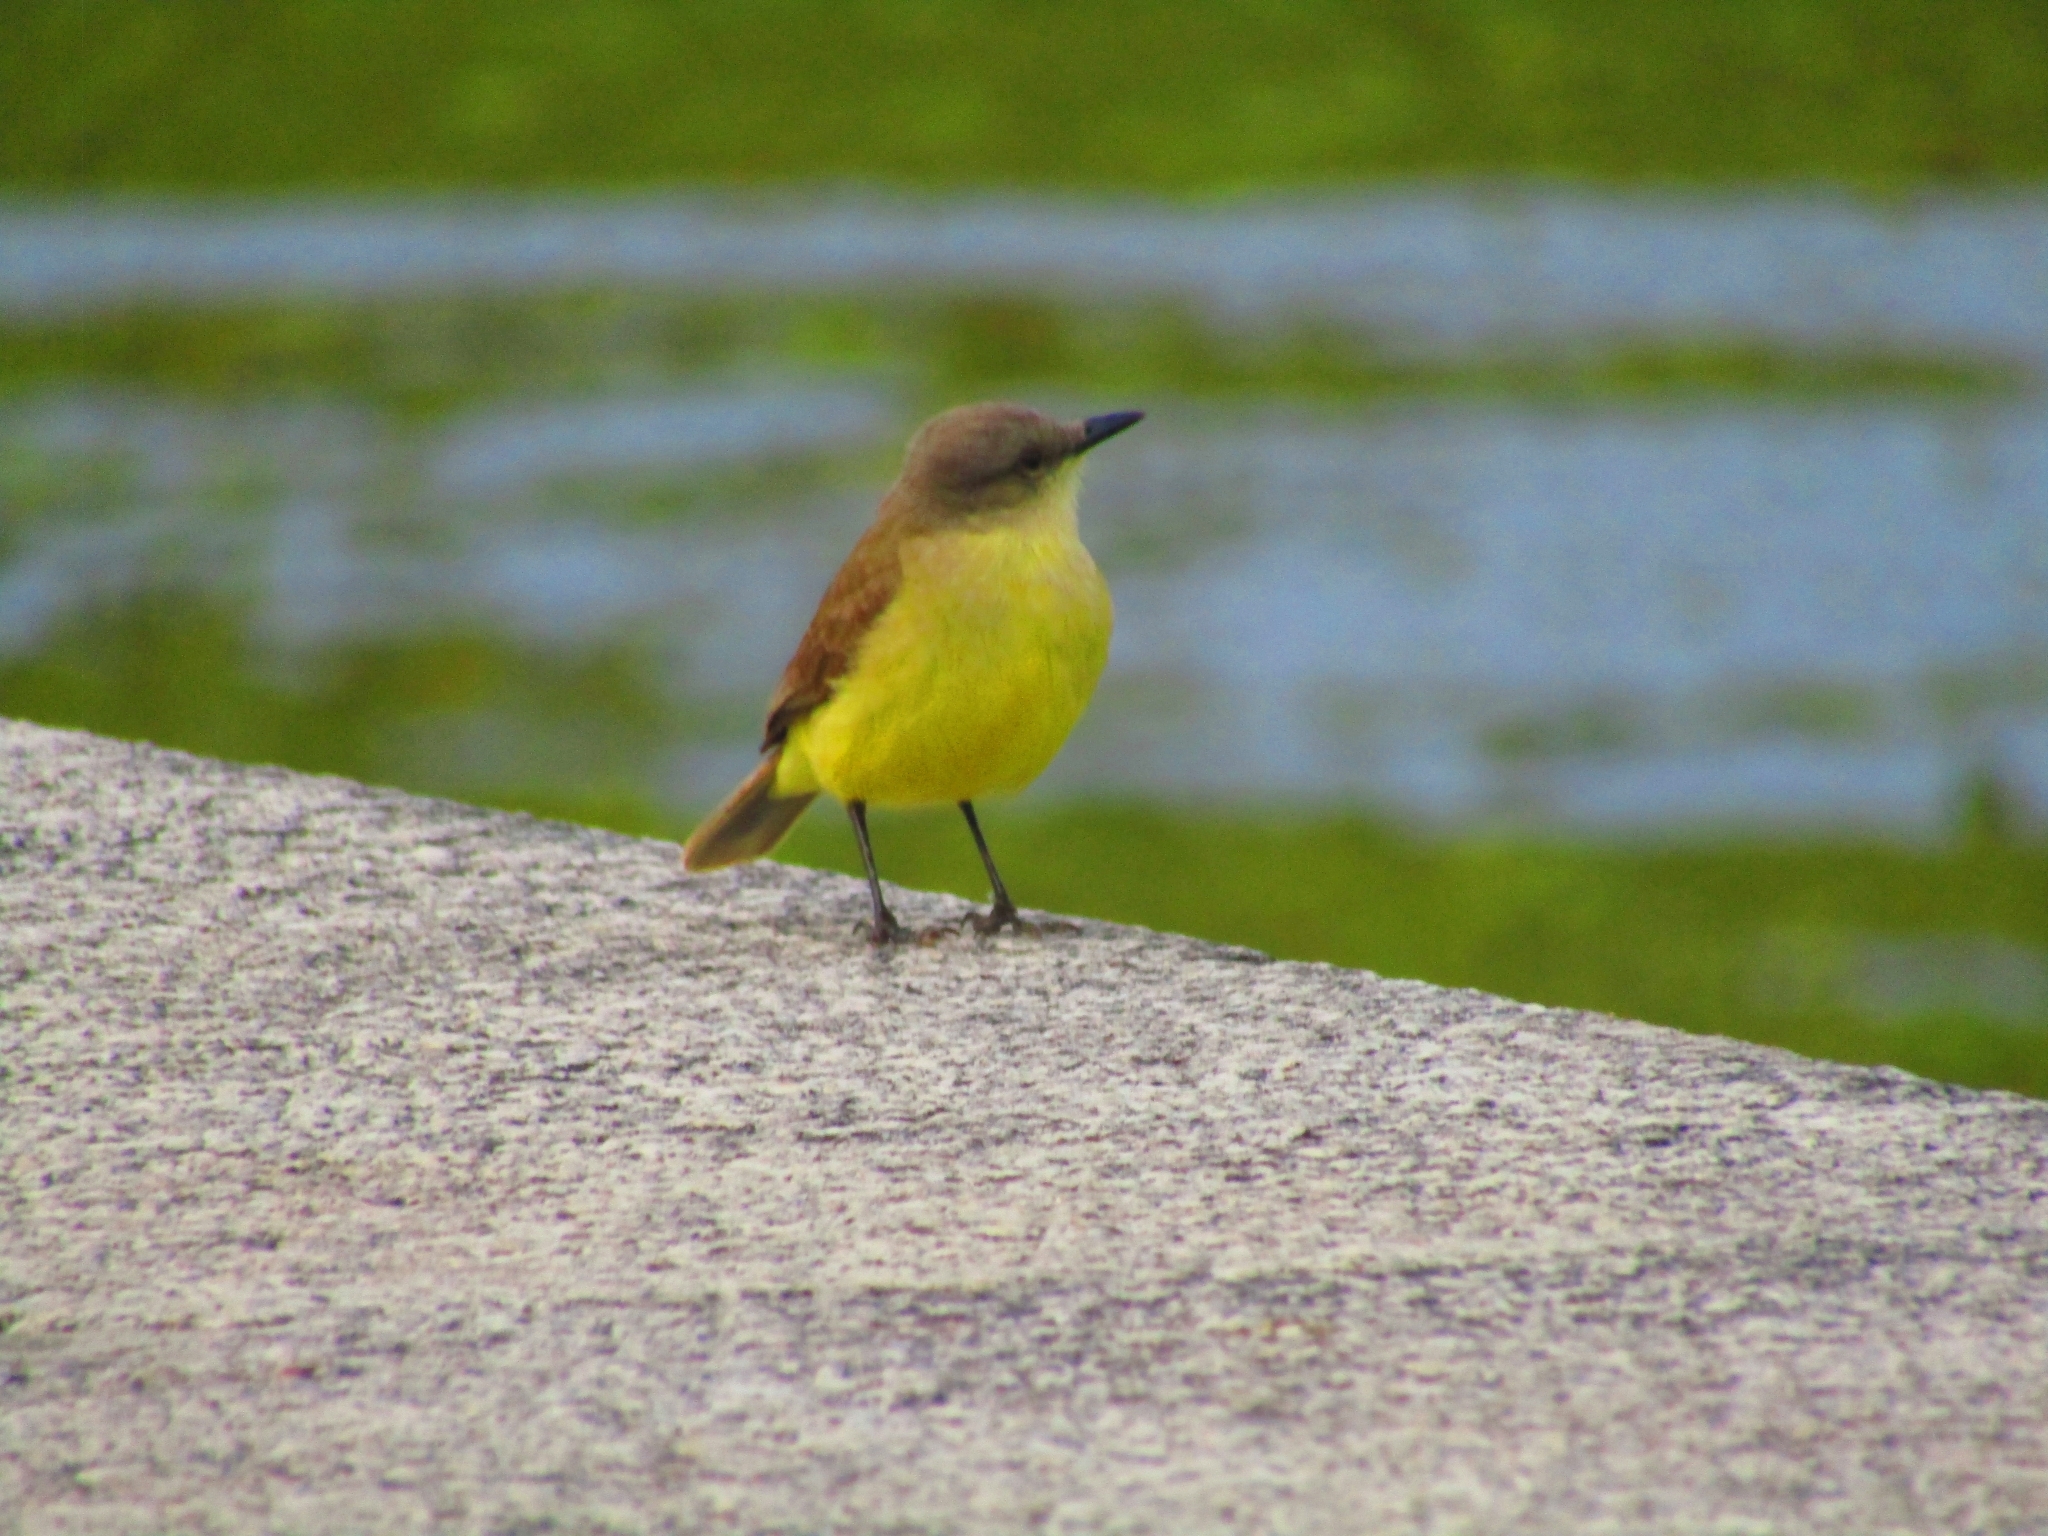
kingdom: Animalia
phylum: Chordata
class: Aves
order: Passeriformes
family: Tyrannidae
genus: Machetornis
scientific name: Machetornis rixosa
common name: Cattle tyrant
